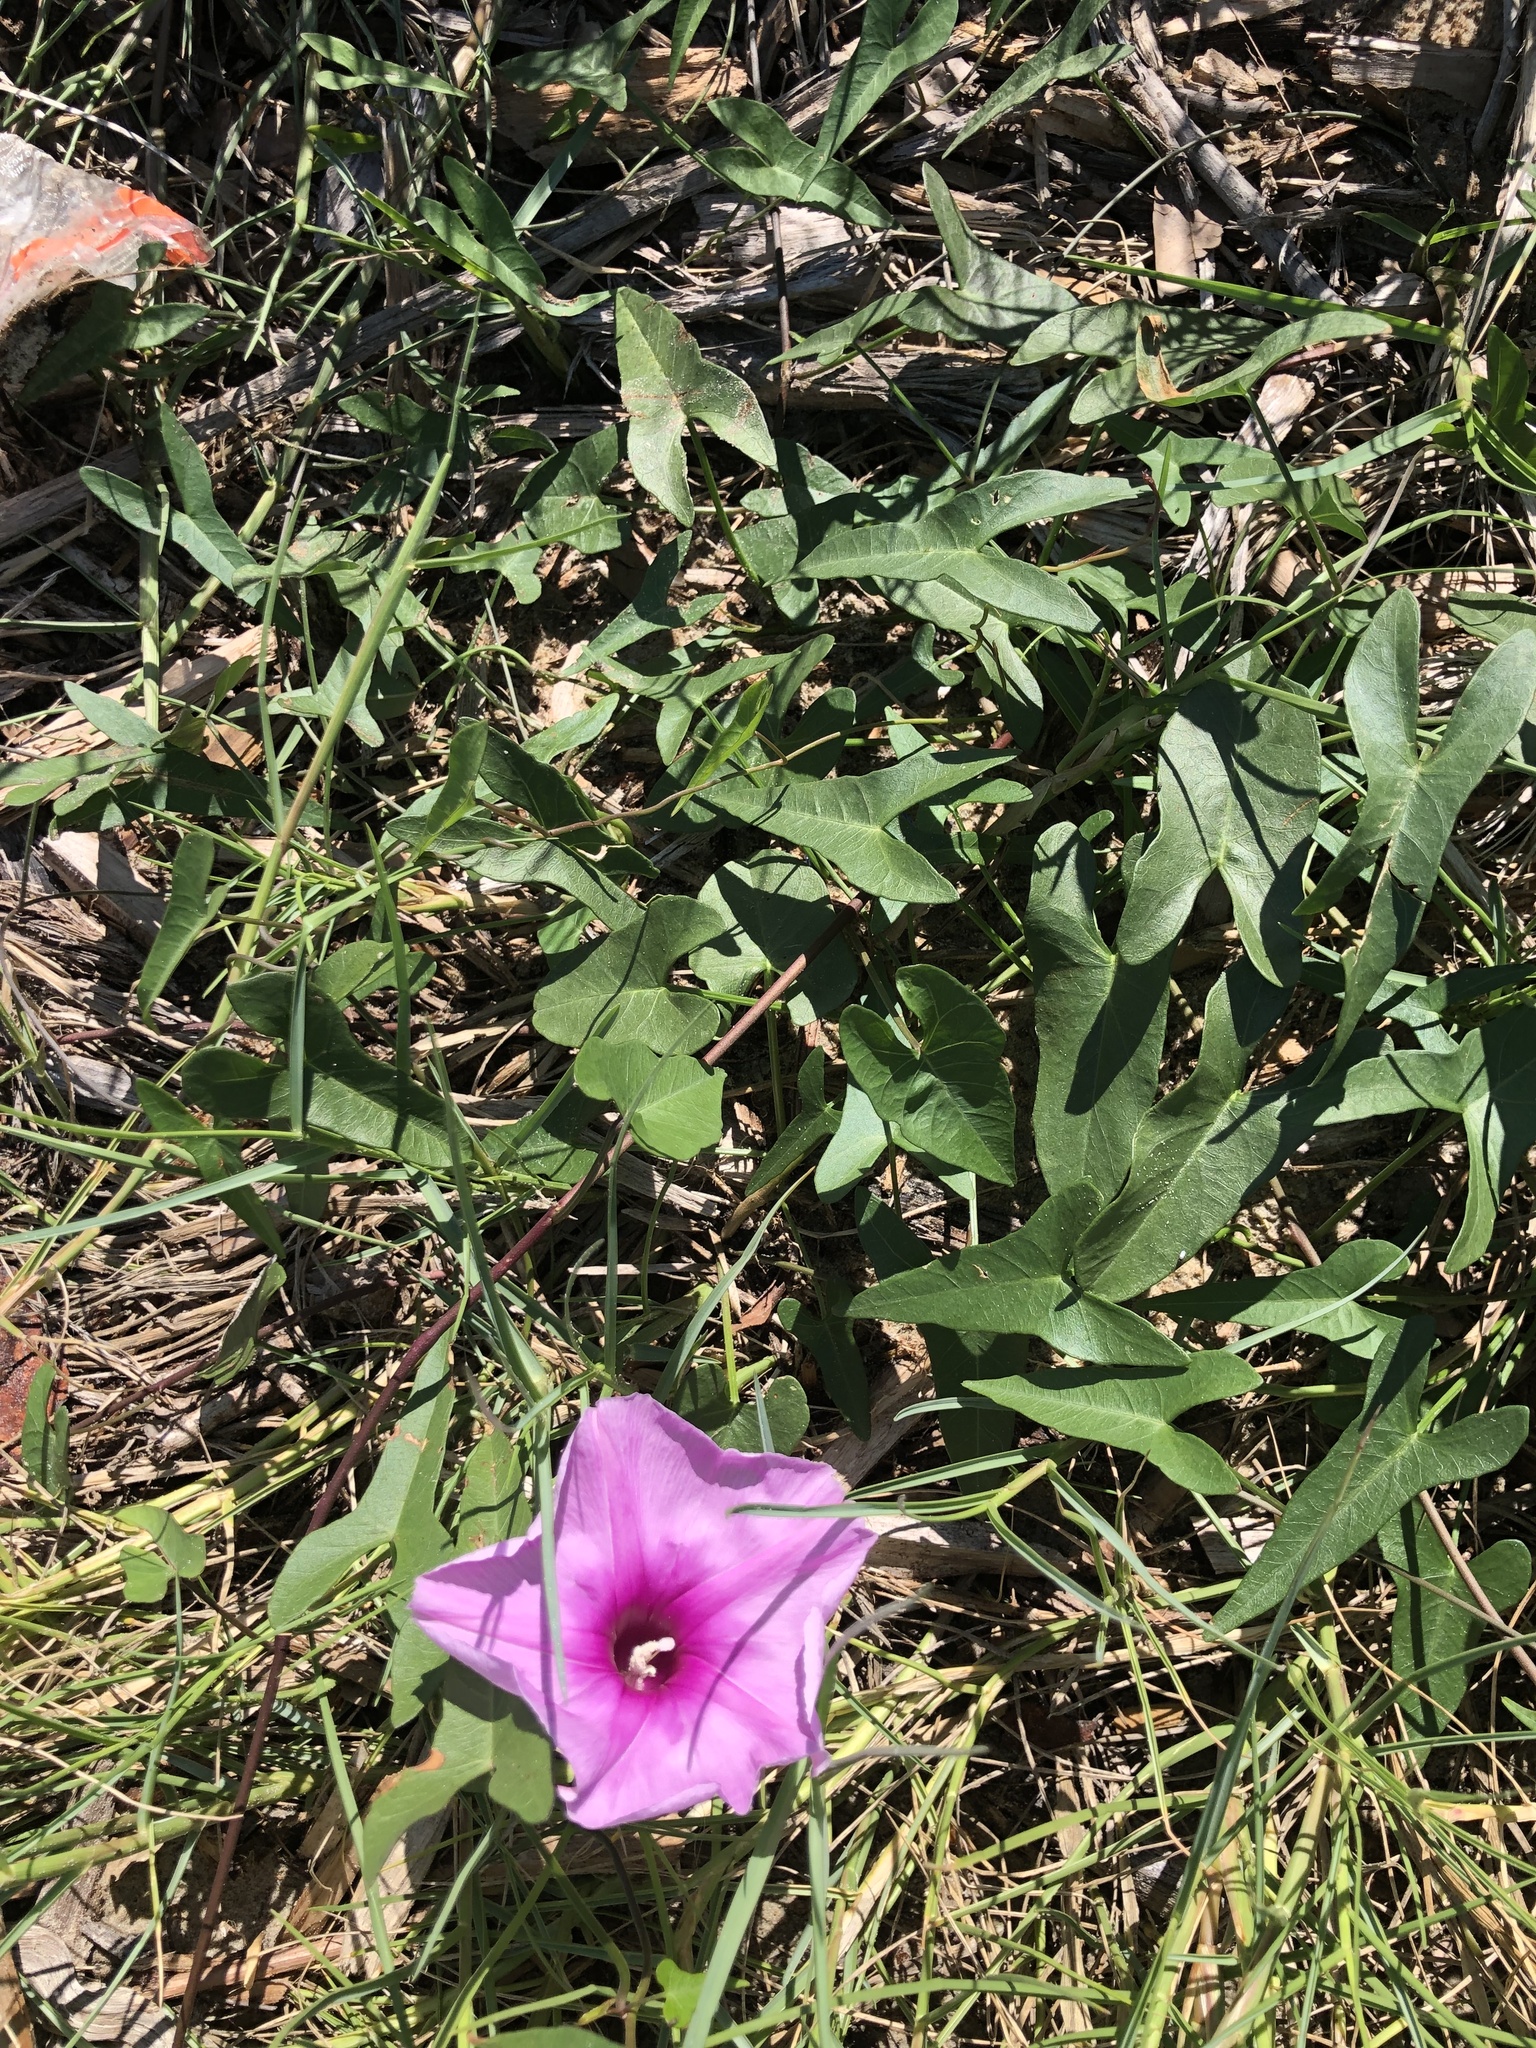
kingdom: Plantae
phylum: Tracheophyta
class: Magnoliopsida
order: Solanales
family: Convolvulaceae
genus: Ipomoea
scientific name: Ipomoea sagittata
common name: Saltmarsh morning glory
